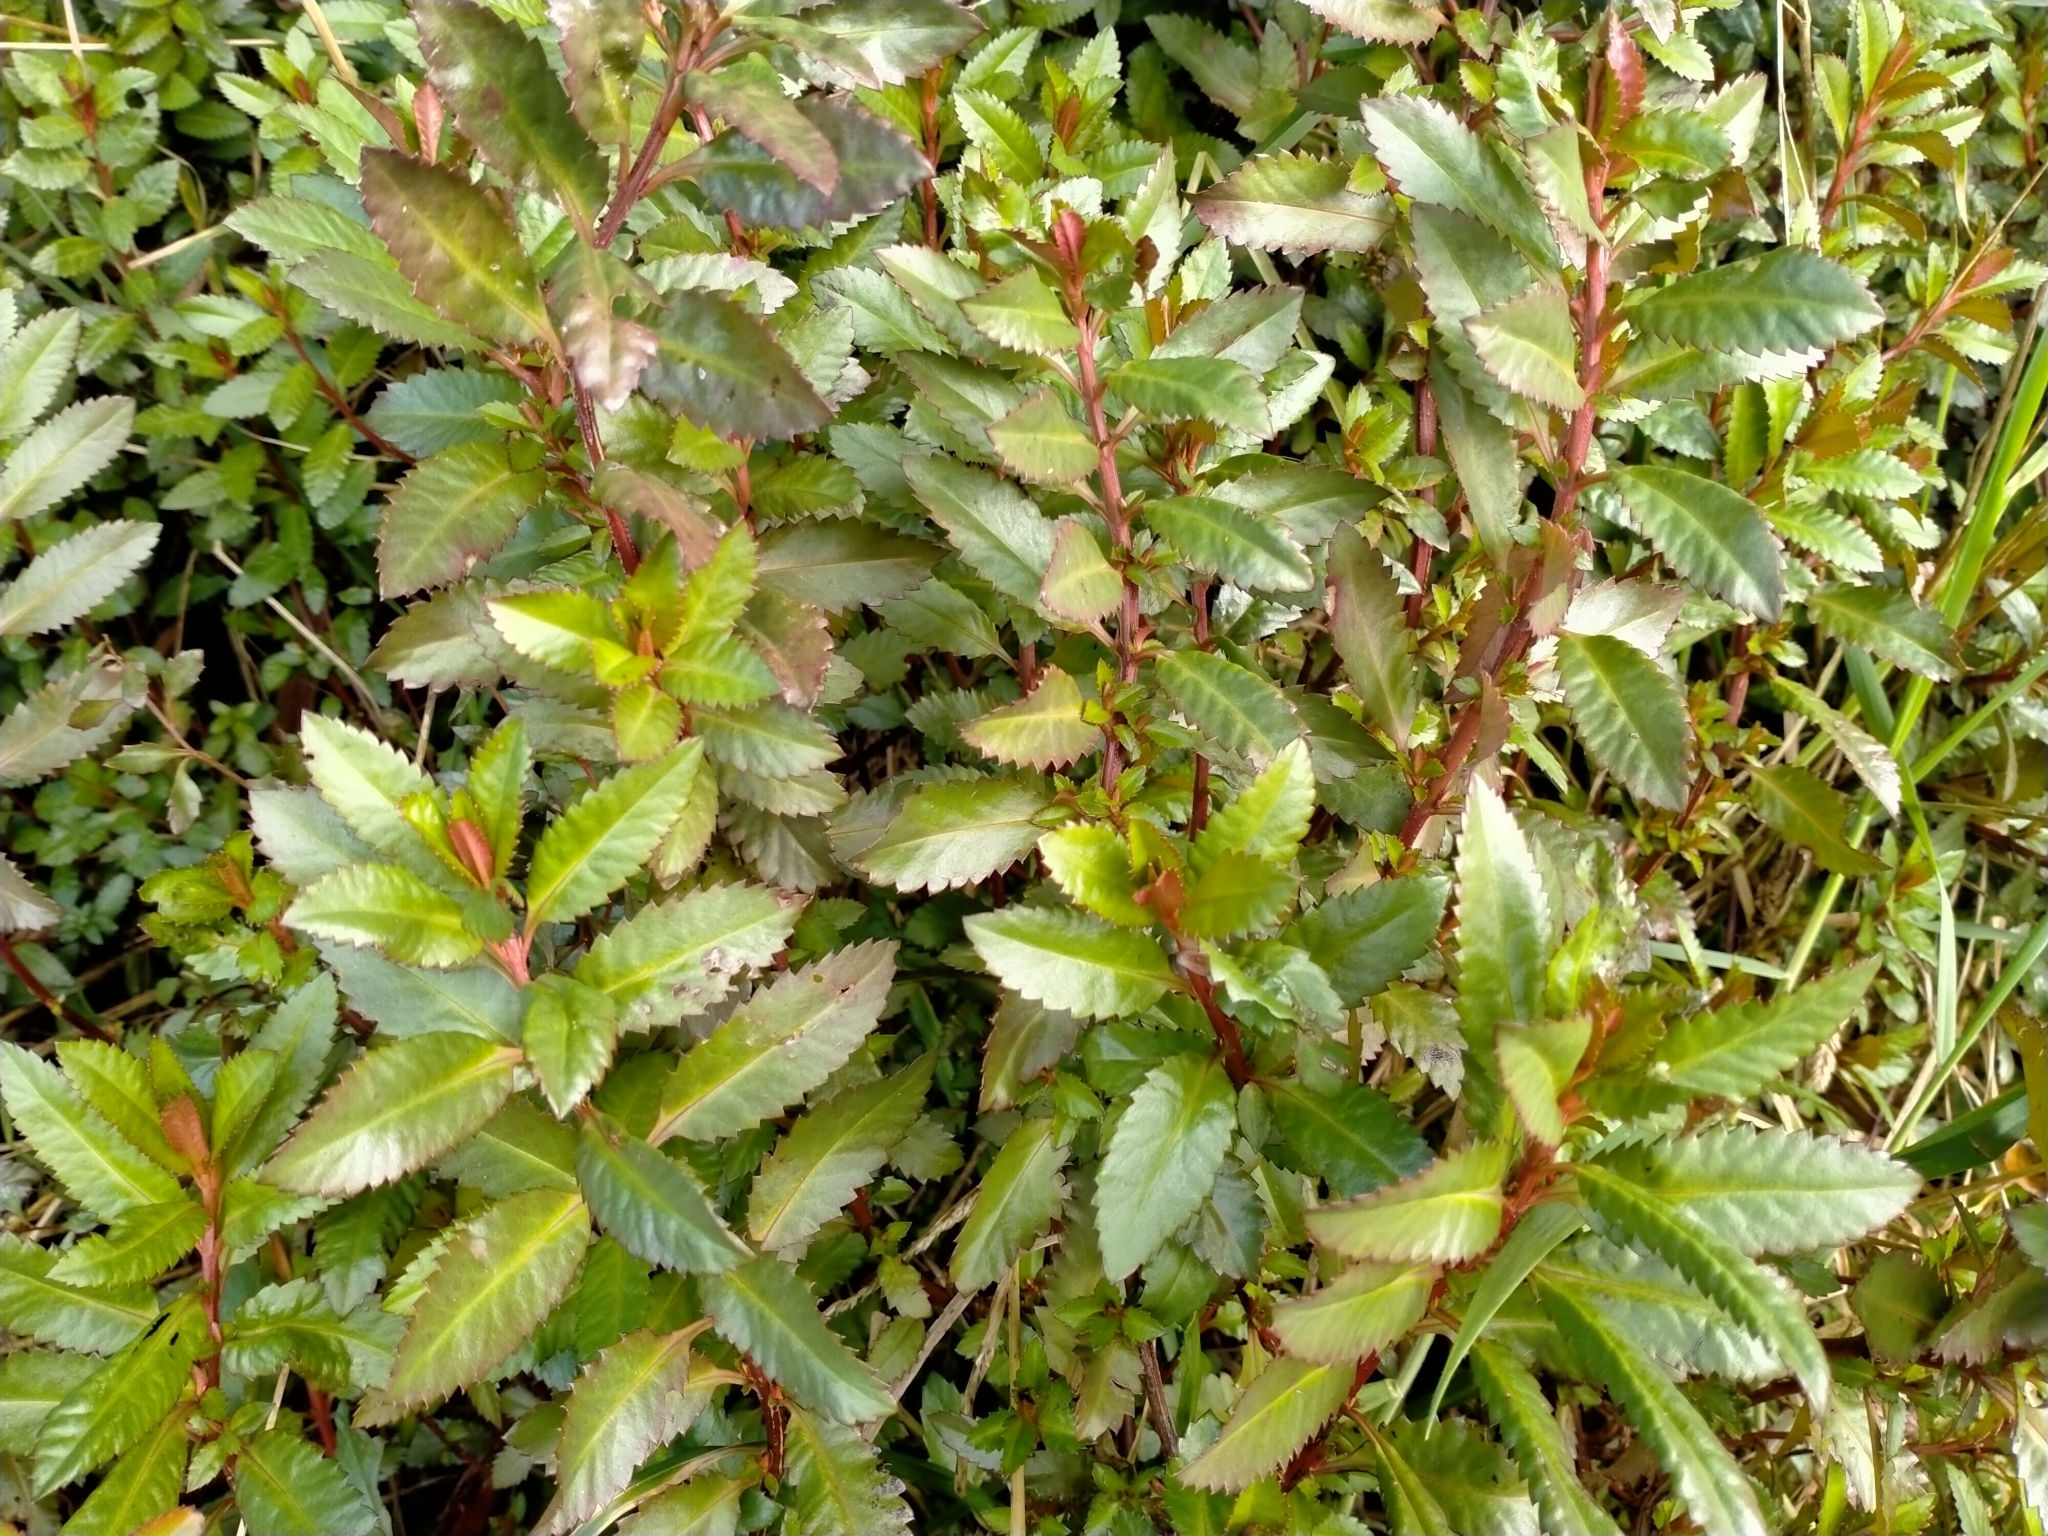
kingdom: Plantae
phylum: Tracheophyta
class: Magnoliopsida
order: Saxifragales
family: Haloragaceae
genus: Haloragis
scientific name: Haloragis erecta
